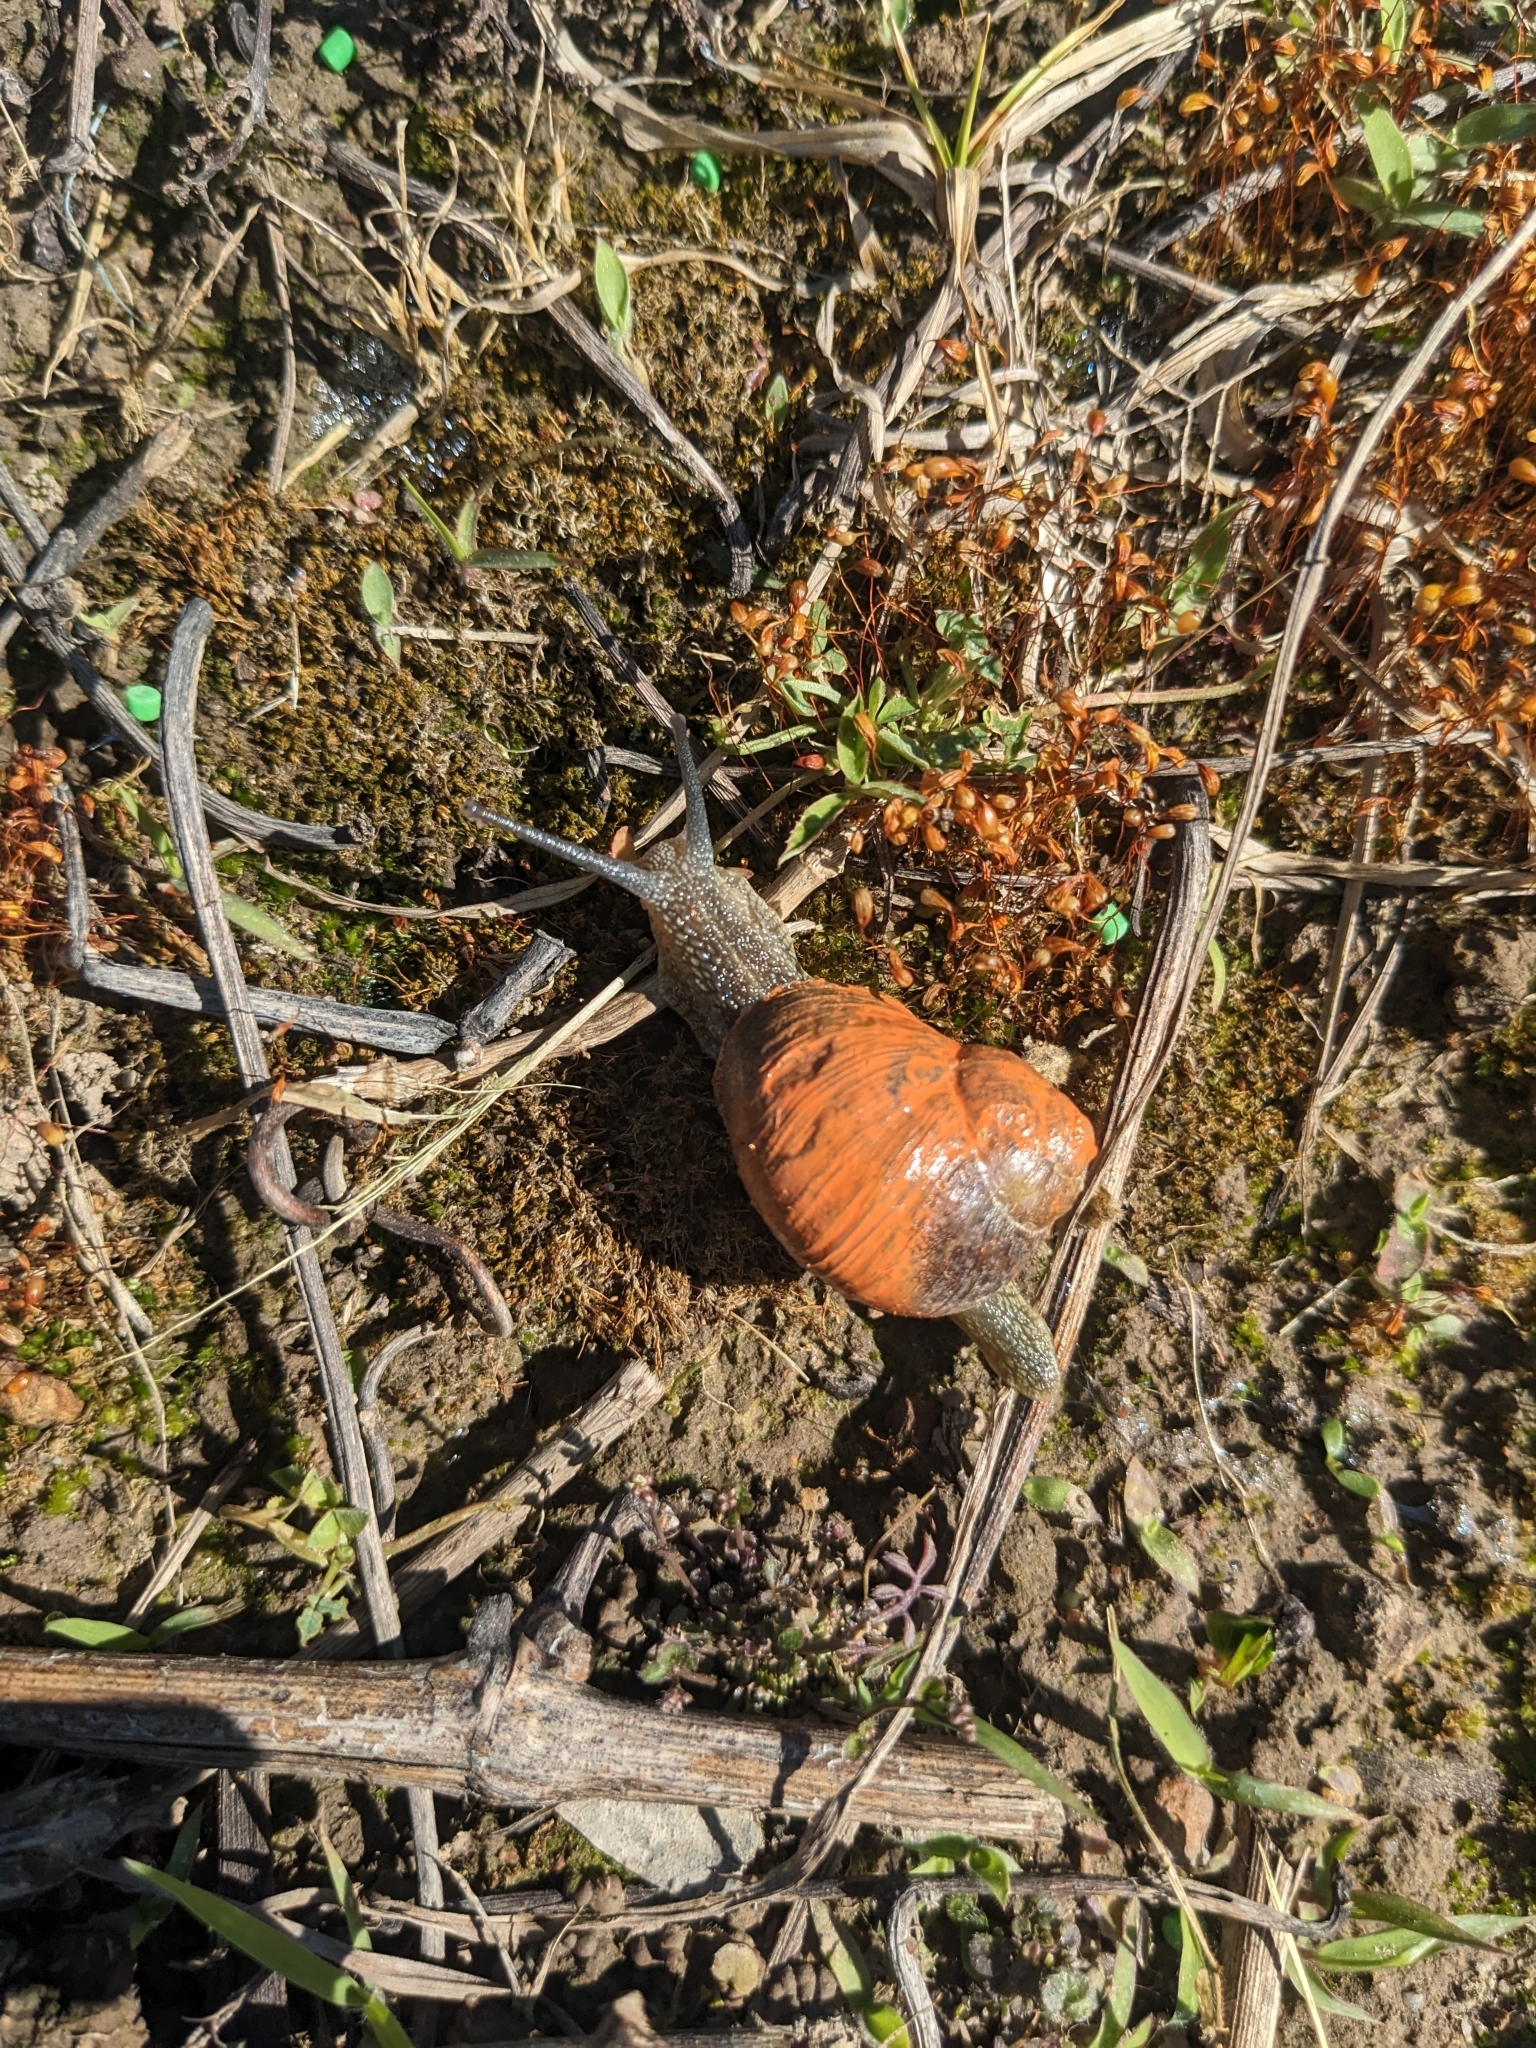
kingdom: Animalia
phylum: Mollusca
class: Gastropoda
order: Stylommatophora
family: Helicidae
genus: Cornu
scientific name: Cornu aspersum
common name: Brown garden snail
